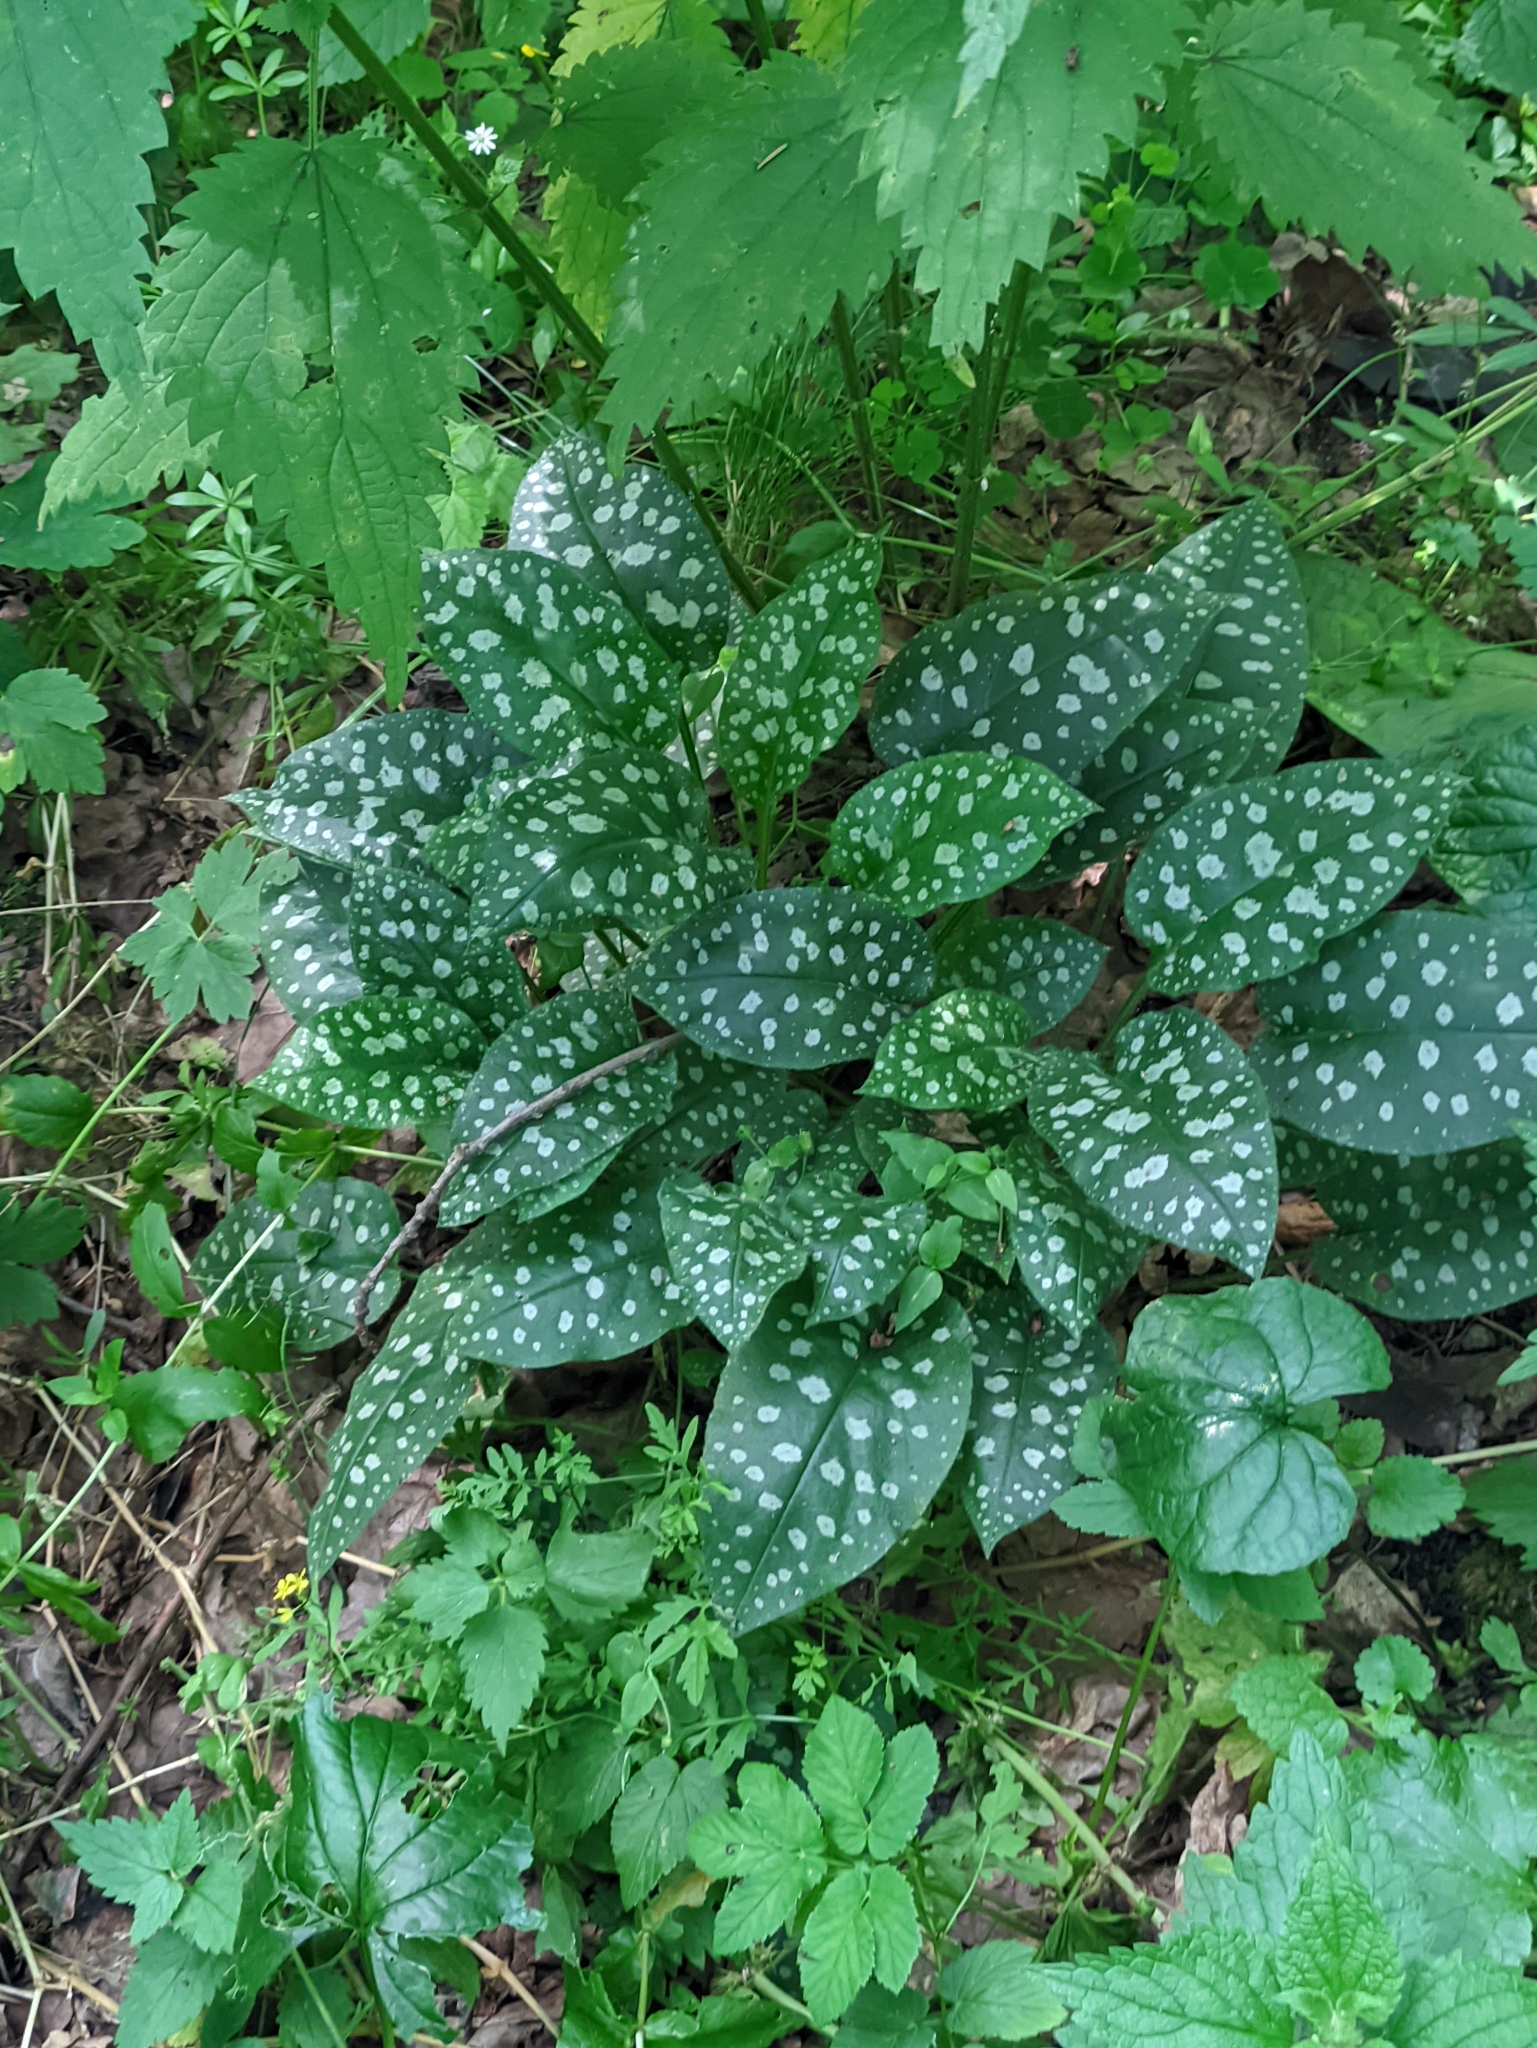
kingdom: Plantae
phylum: Tracheophyta
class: Magnoliopsida
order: Boraginales
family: Boraginaceae
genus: Pulmonaria
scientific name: Pulmonaria saccharata
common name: Bethlehem lungwort
